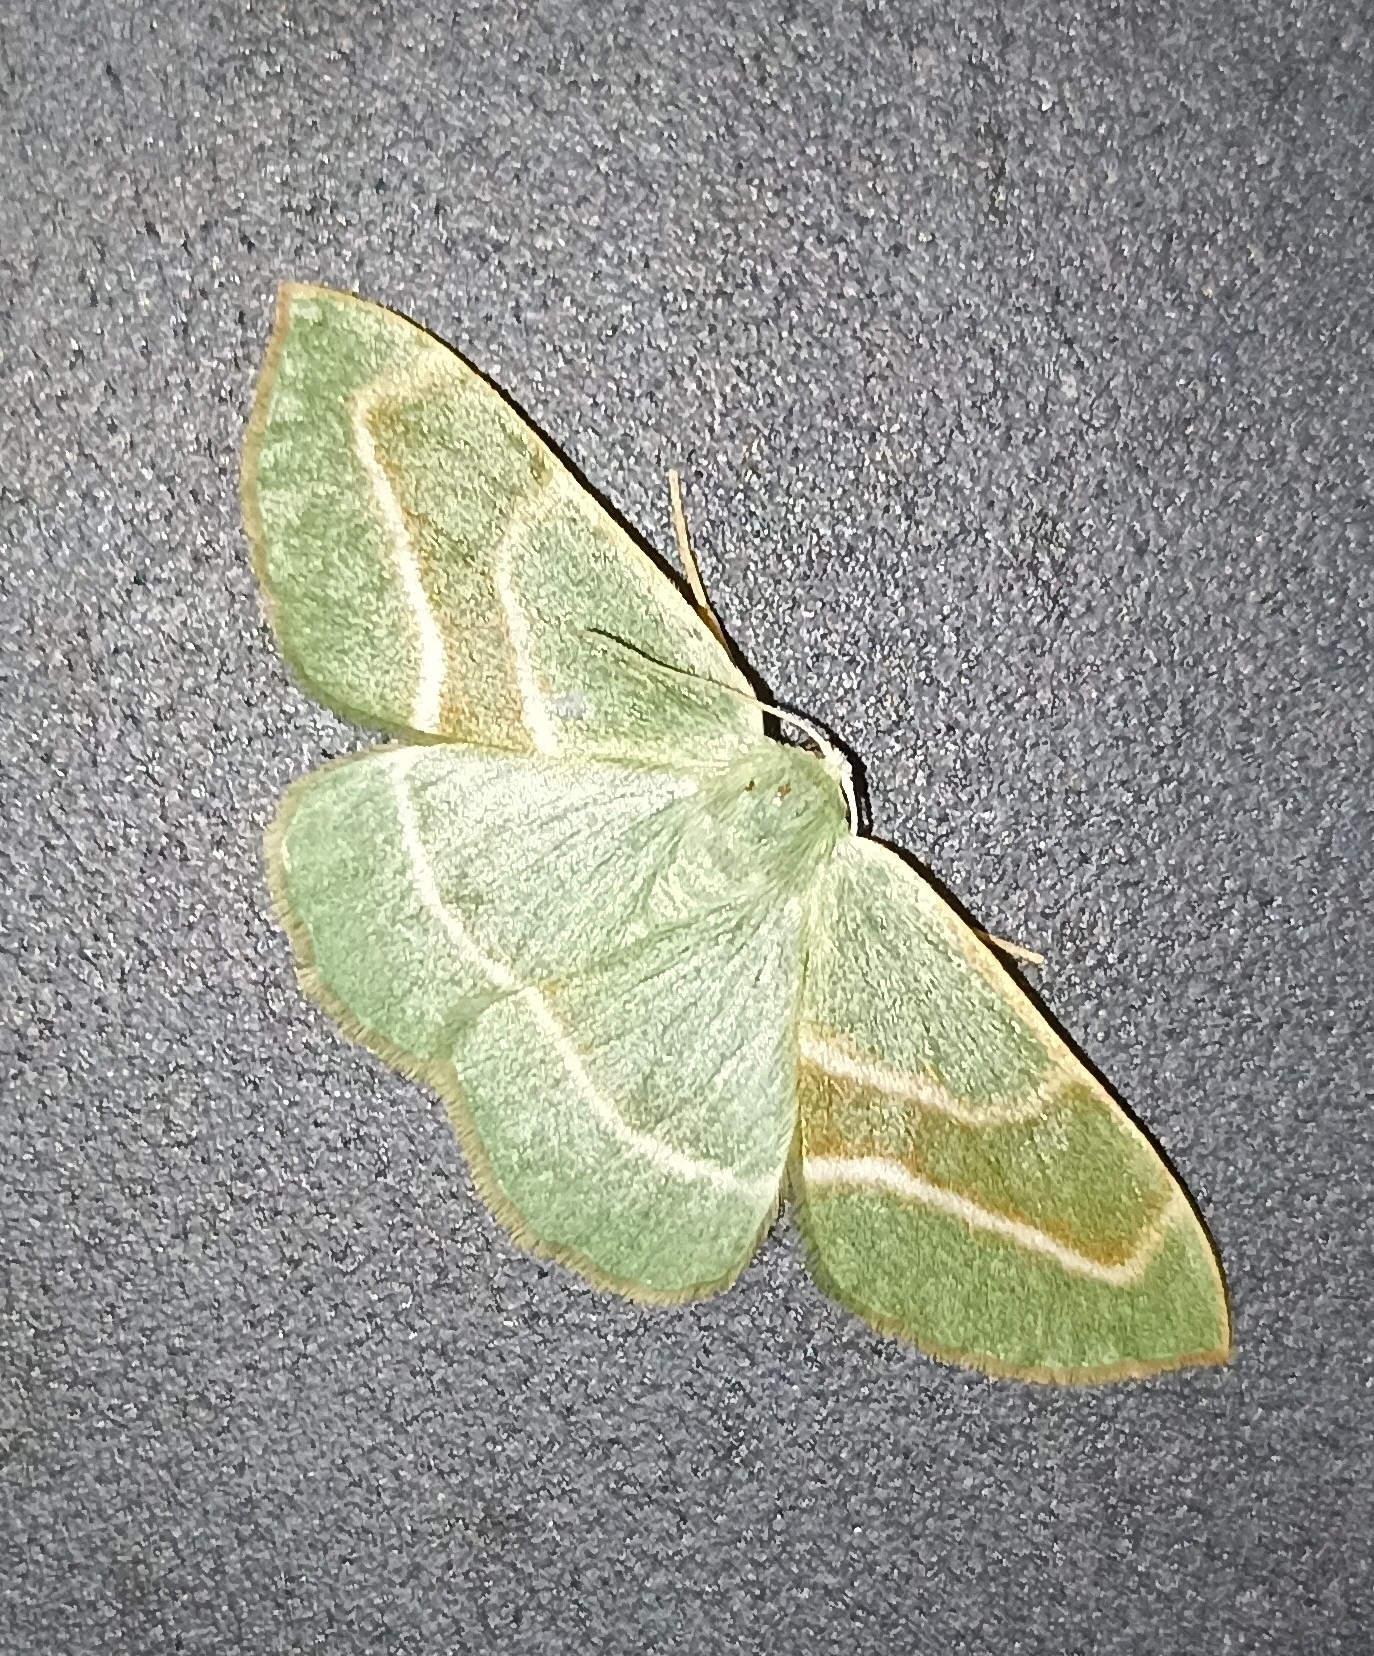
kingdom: Animalia
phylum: Arthropoda
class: Insecta
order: Lepidoptera
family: Geometridae
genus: Hylaea
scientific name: Hylaea fasciaria
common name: Barred red
